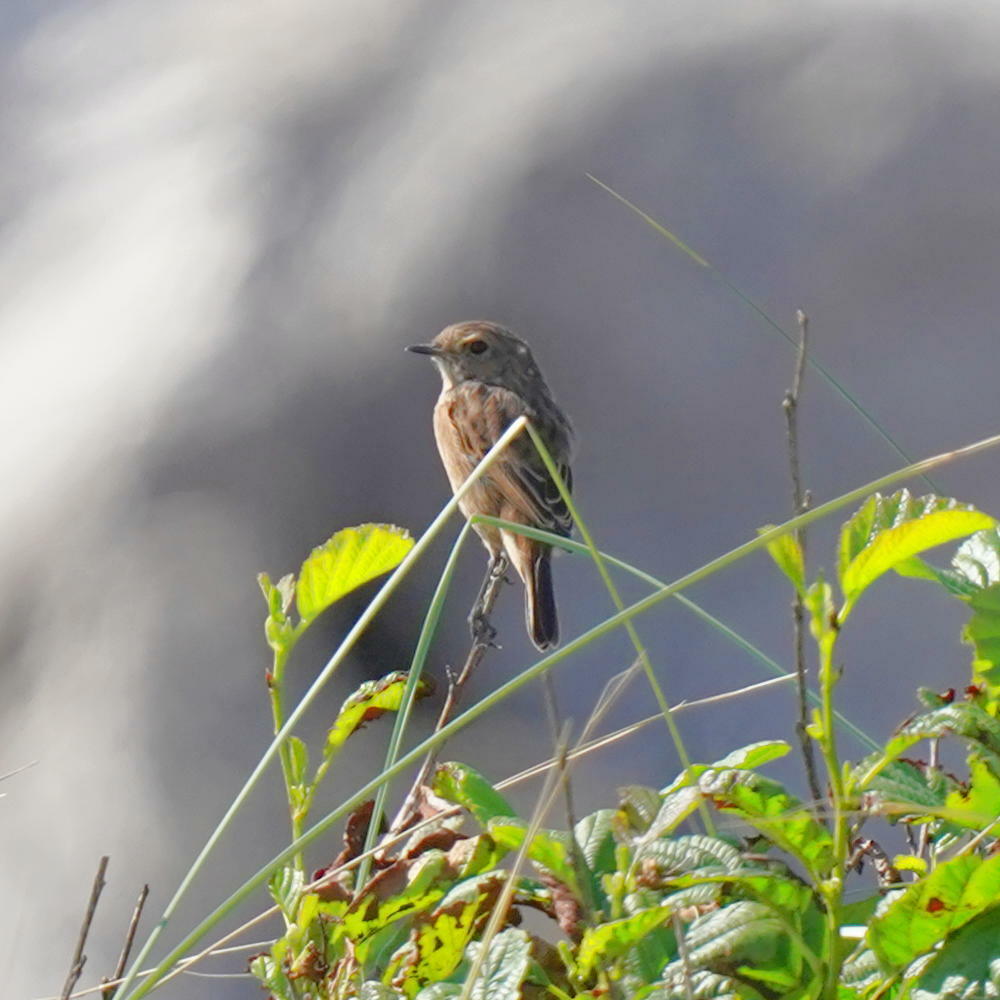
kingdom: Animalia
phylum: Chordata
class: Aves
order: Passeriformes
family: Muscicapidae
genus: Saxicola
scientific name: Saxicola rubicola
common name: European stonechat
